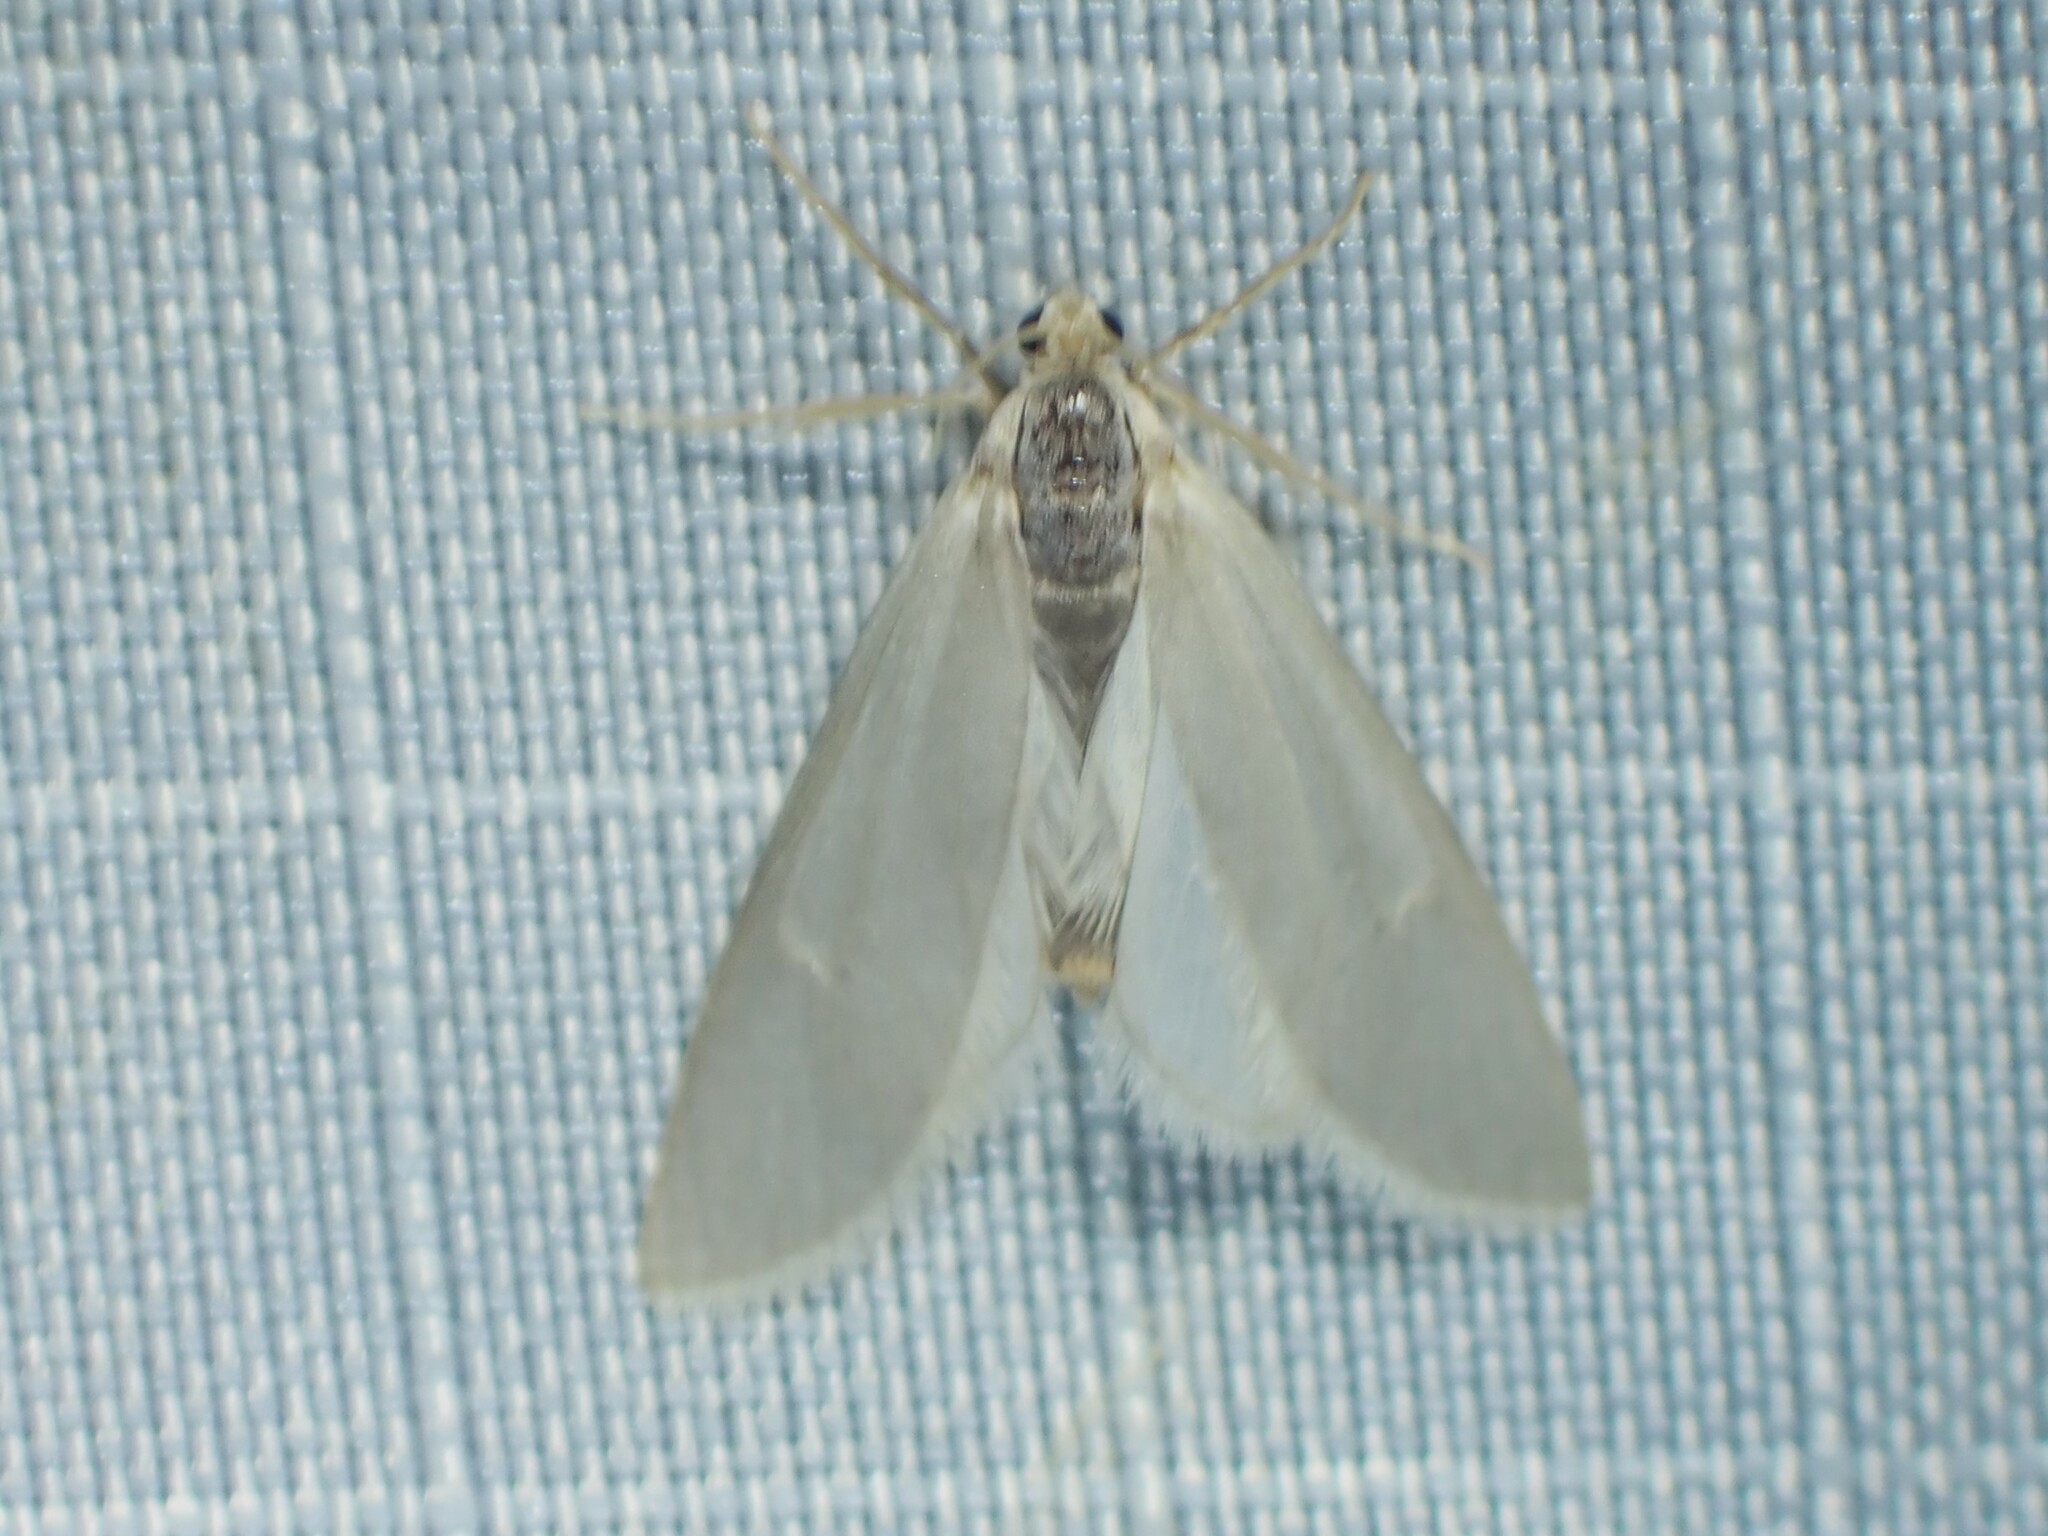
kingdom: Animalia
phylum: Arthropoda
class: Insecta
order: Lepidoptera
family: Crambidae
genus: Acentria
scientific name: Acentria ephemerella
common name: European water moth
